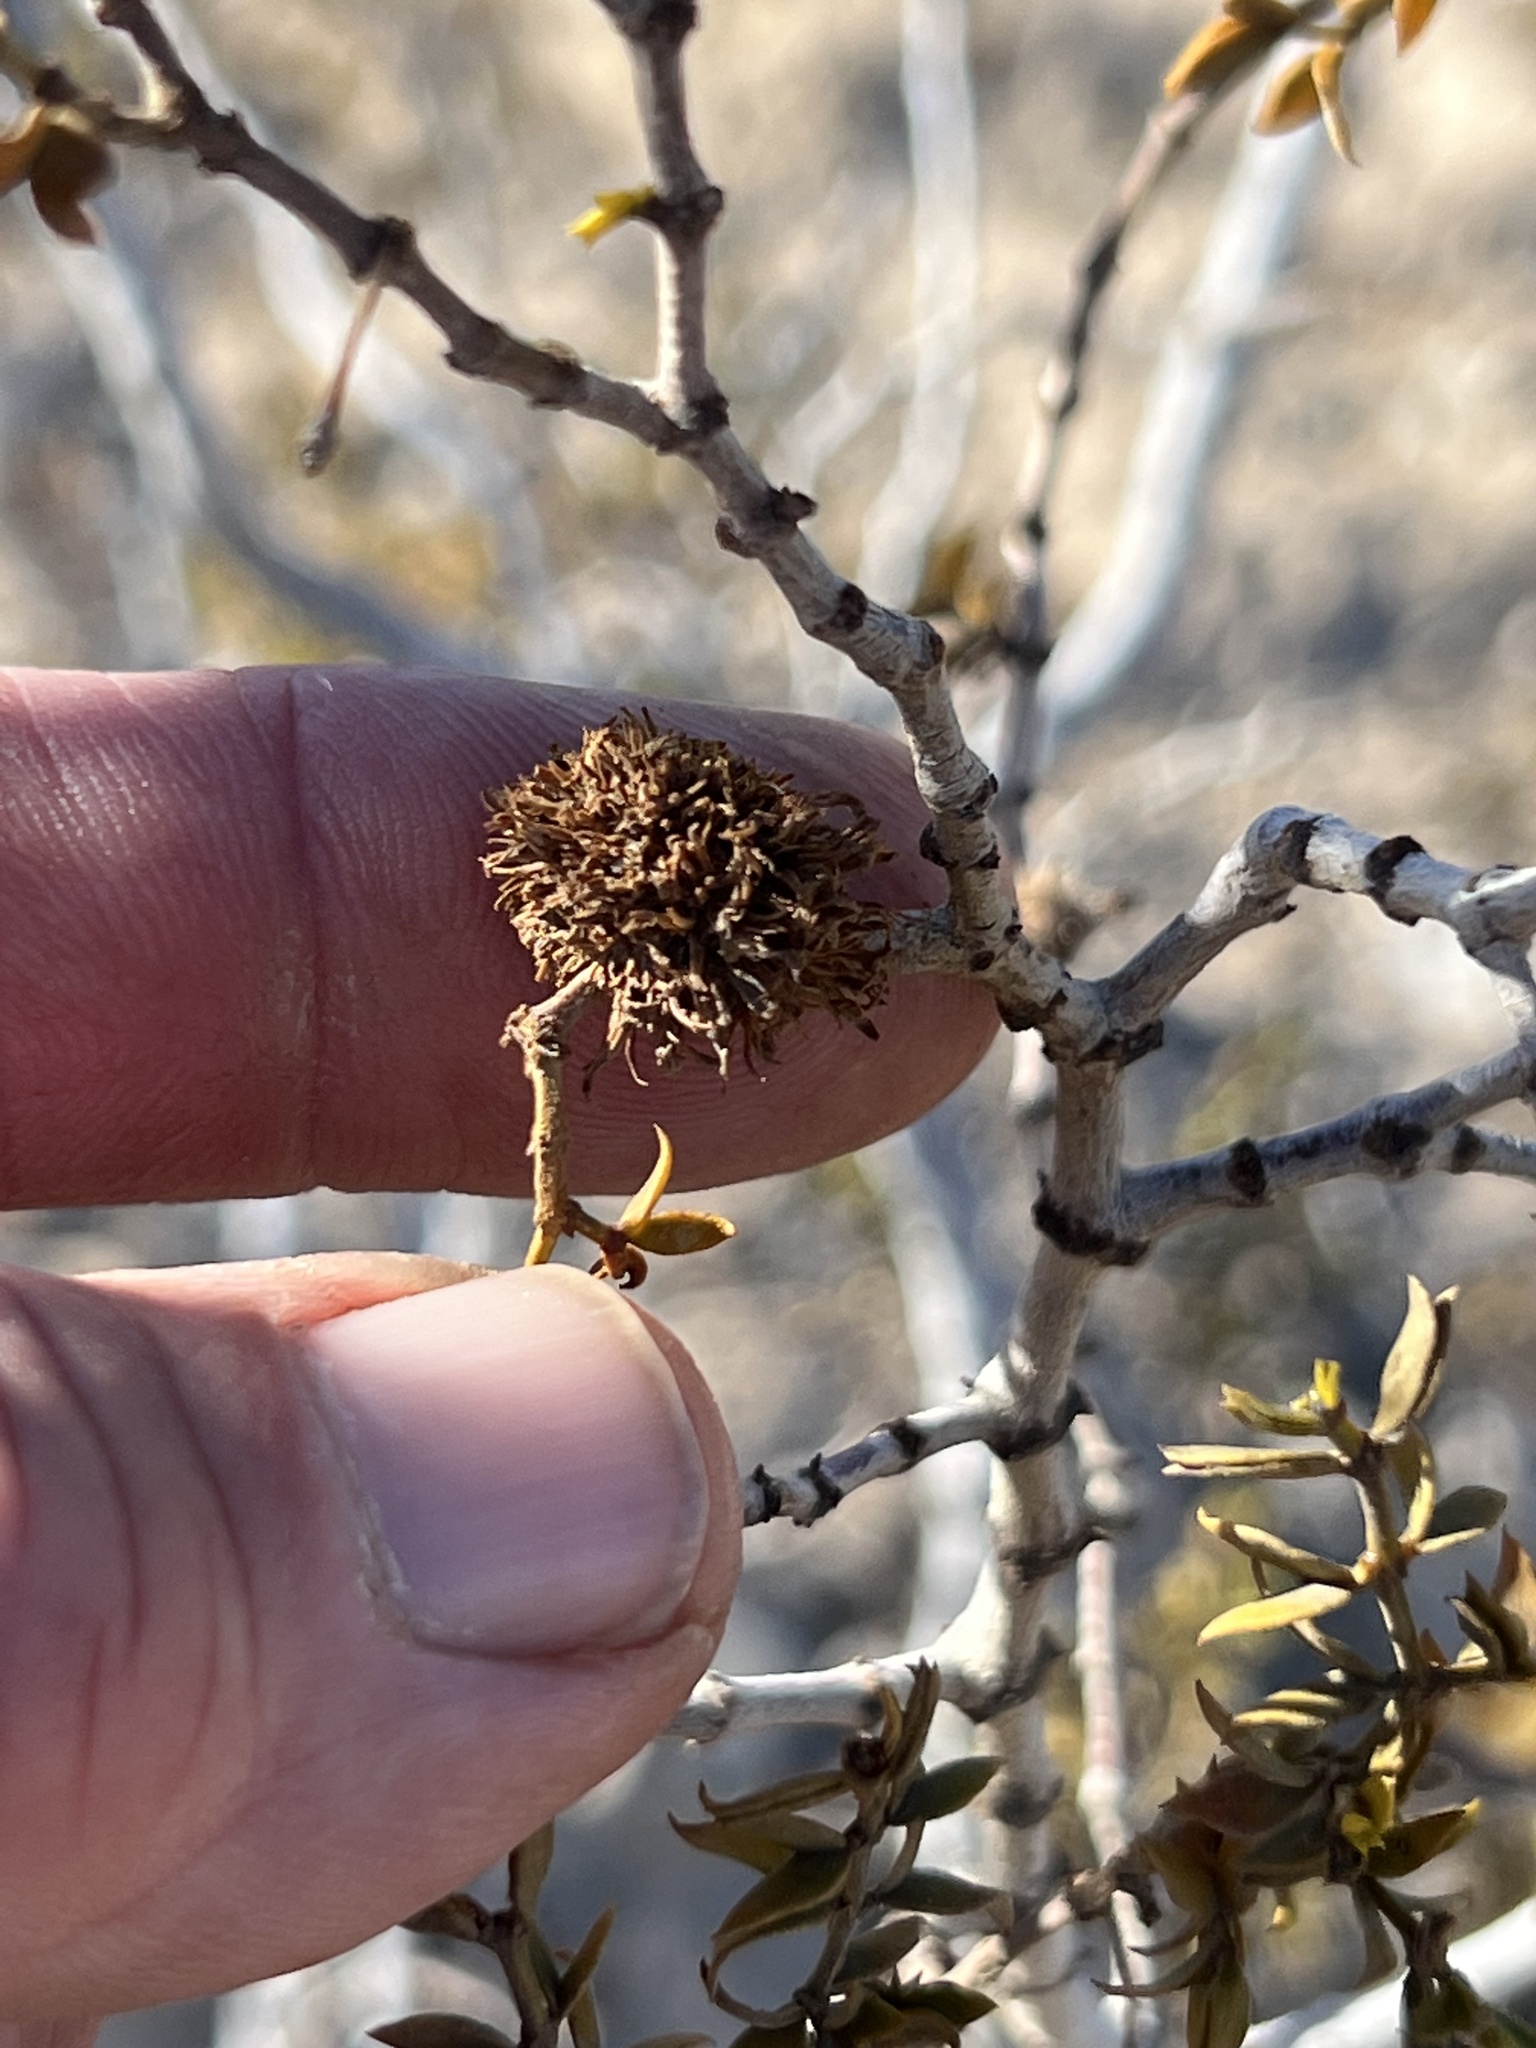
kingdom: Animalia
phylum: Arthropoda
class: Insecta
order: Diptera
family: Cecidomyiidae
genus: Asphondylia
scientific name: Asphondylia auripila
